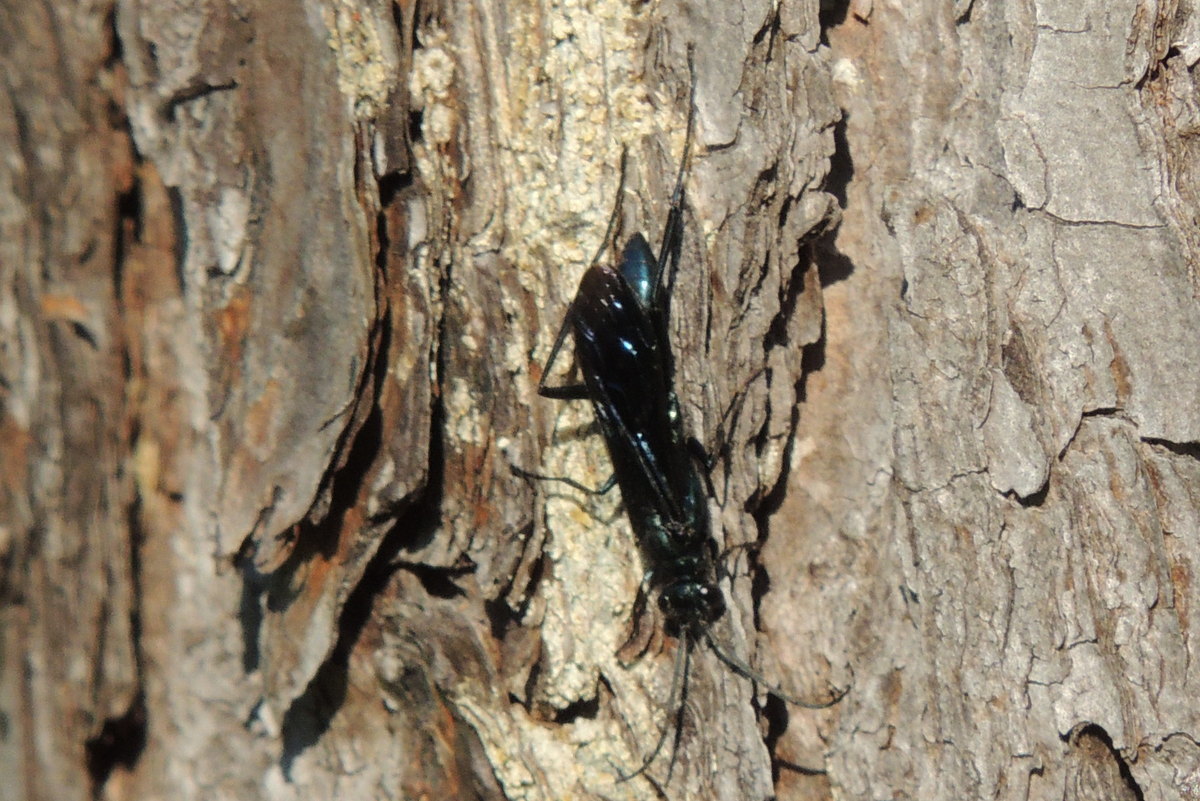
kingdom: Animalia
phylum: Arthropoda
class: Insecta
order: Hymenoptera
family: Sphecidae
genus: Chalybion
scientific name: Chalybion californicum
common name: Mud dauber
